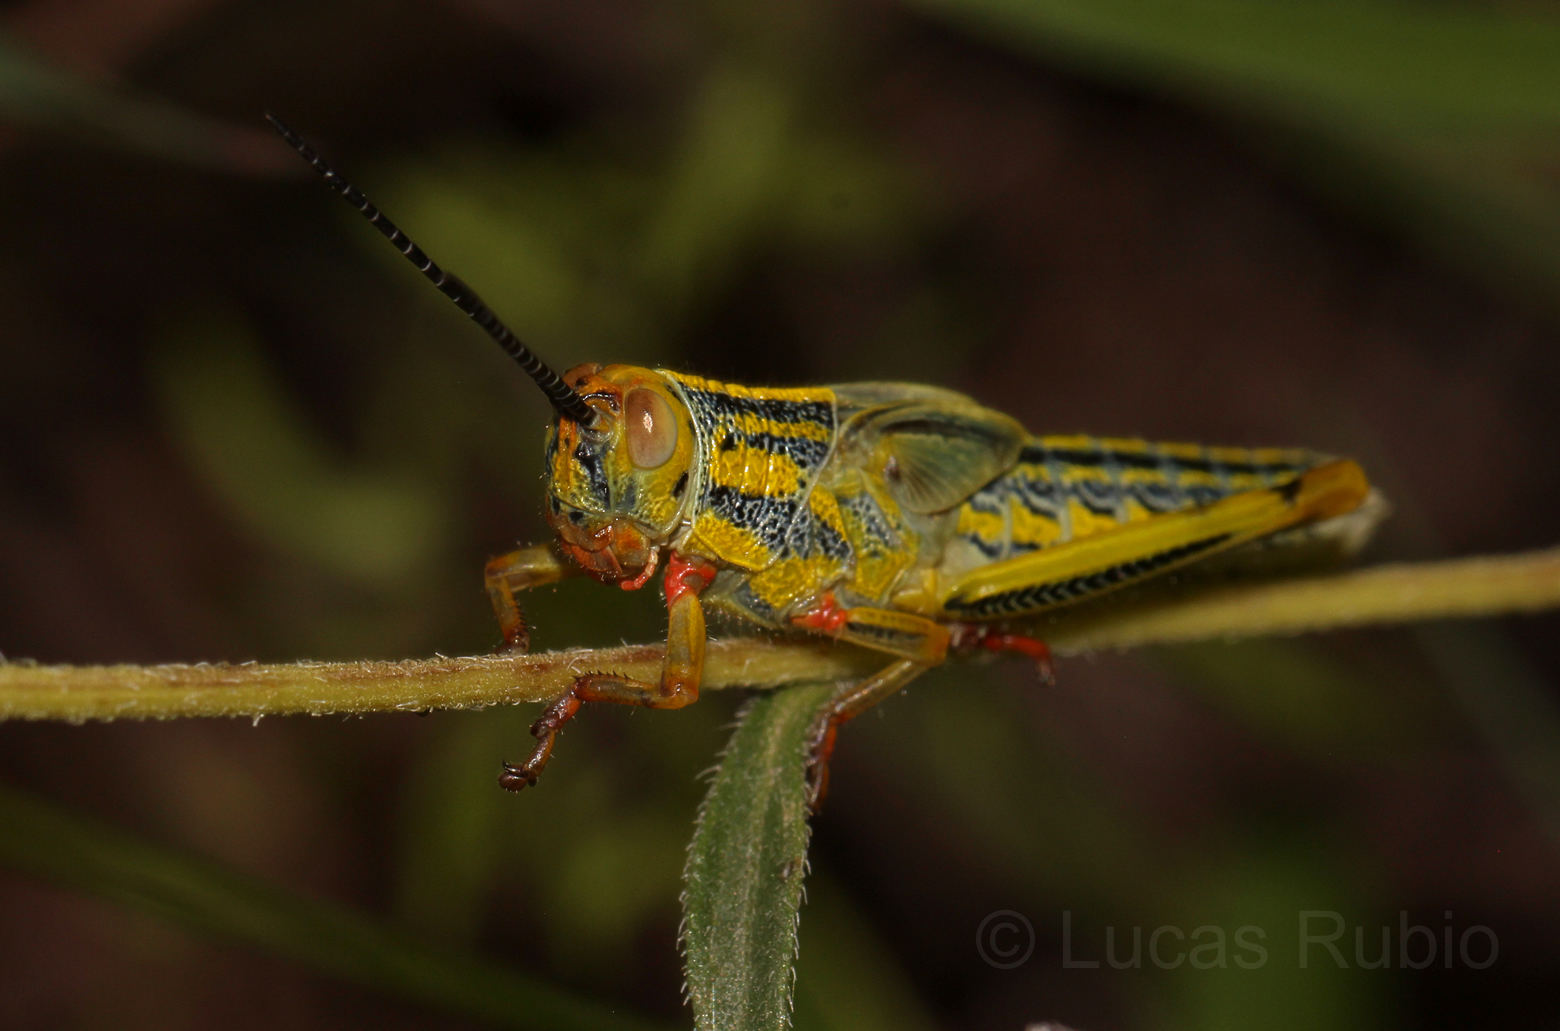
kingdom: Animalia
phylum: Arthropoda
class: Insecta
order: Orthoptera
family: Romaleidae
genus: Zoniopoda
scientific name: Zoniopoda serrana
